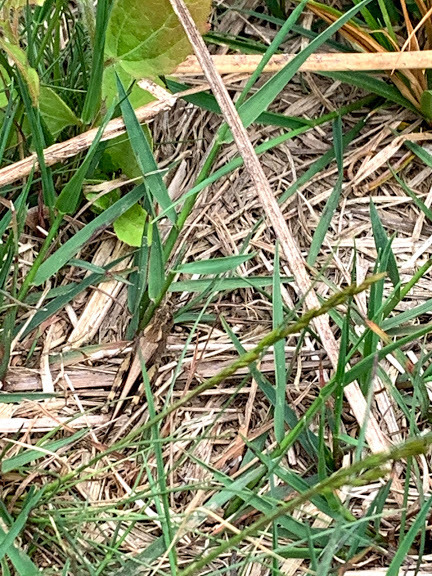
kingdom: Animalia
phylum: Arthropoda
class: Insecta
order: Orthoptera
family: Acrididae
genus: Aiolopus
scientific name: Aiolopus strepens
